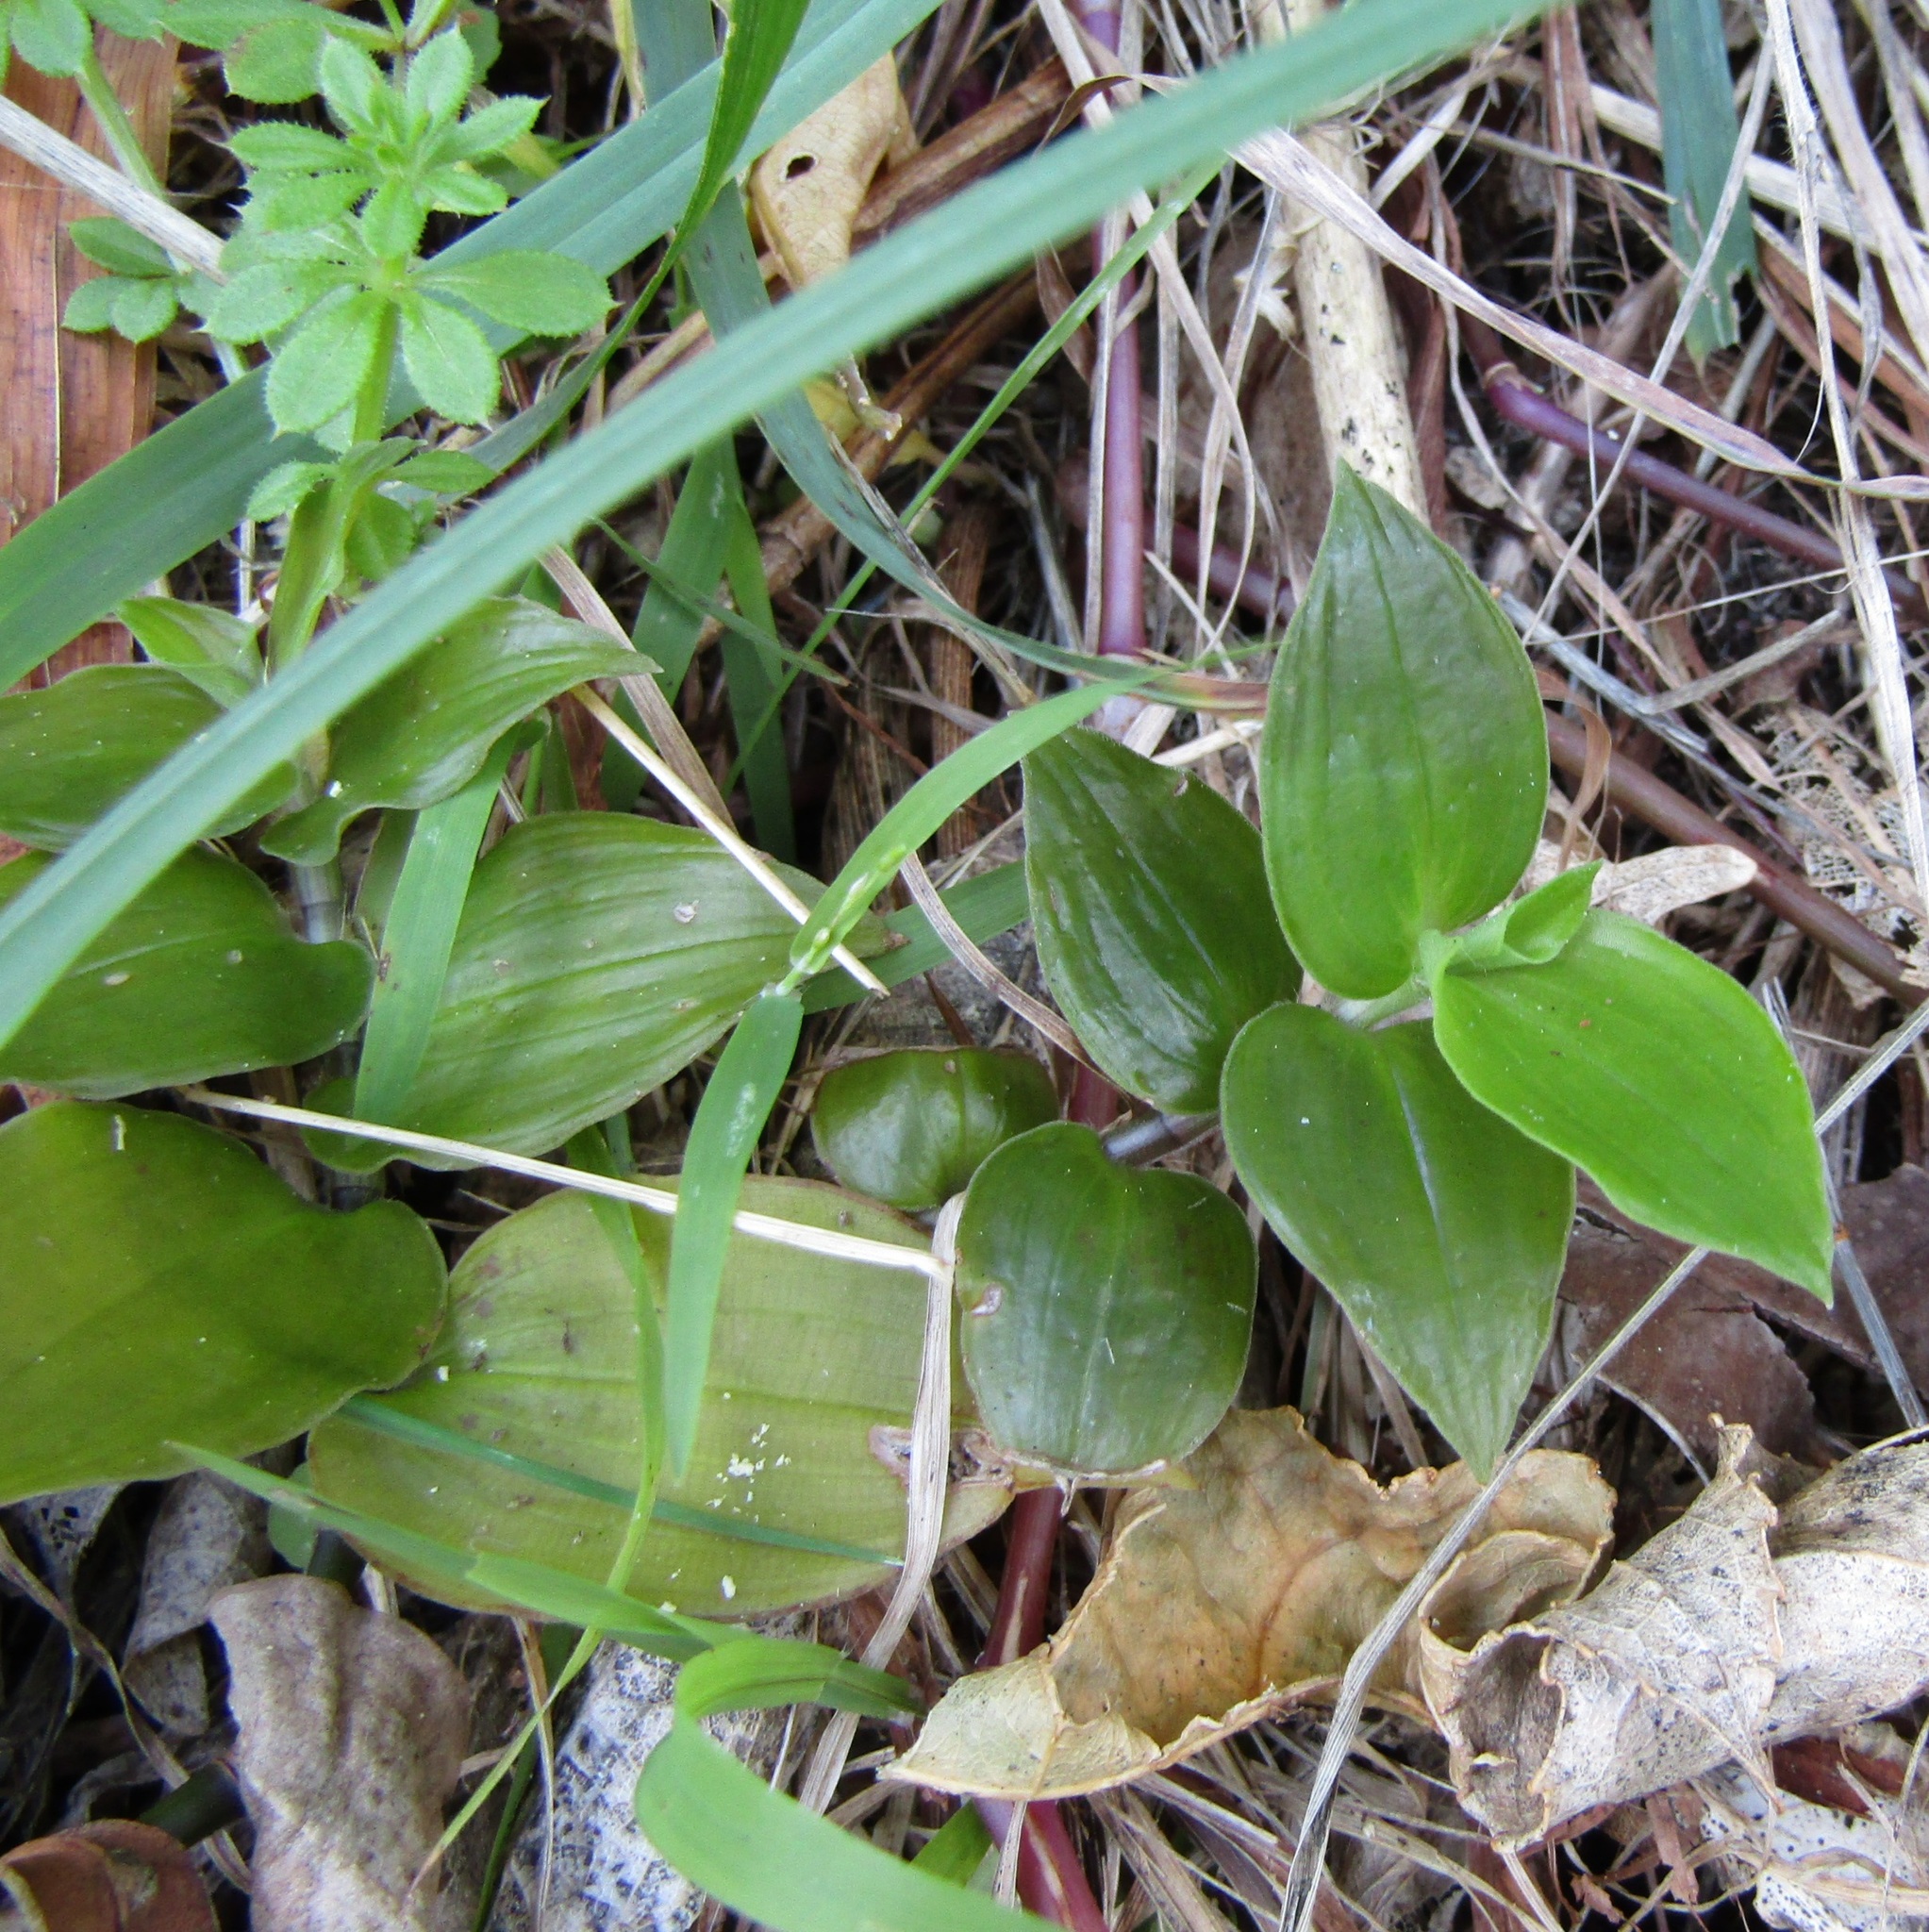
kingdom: Plantae
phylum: Tracheophyta
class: Liliopsida
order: Commelinales
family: Commelinaceae
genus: Tradescantia
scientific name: Tradescantia fluminensis
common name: Wandering-jew
